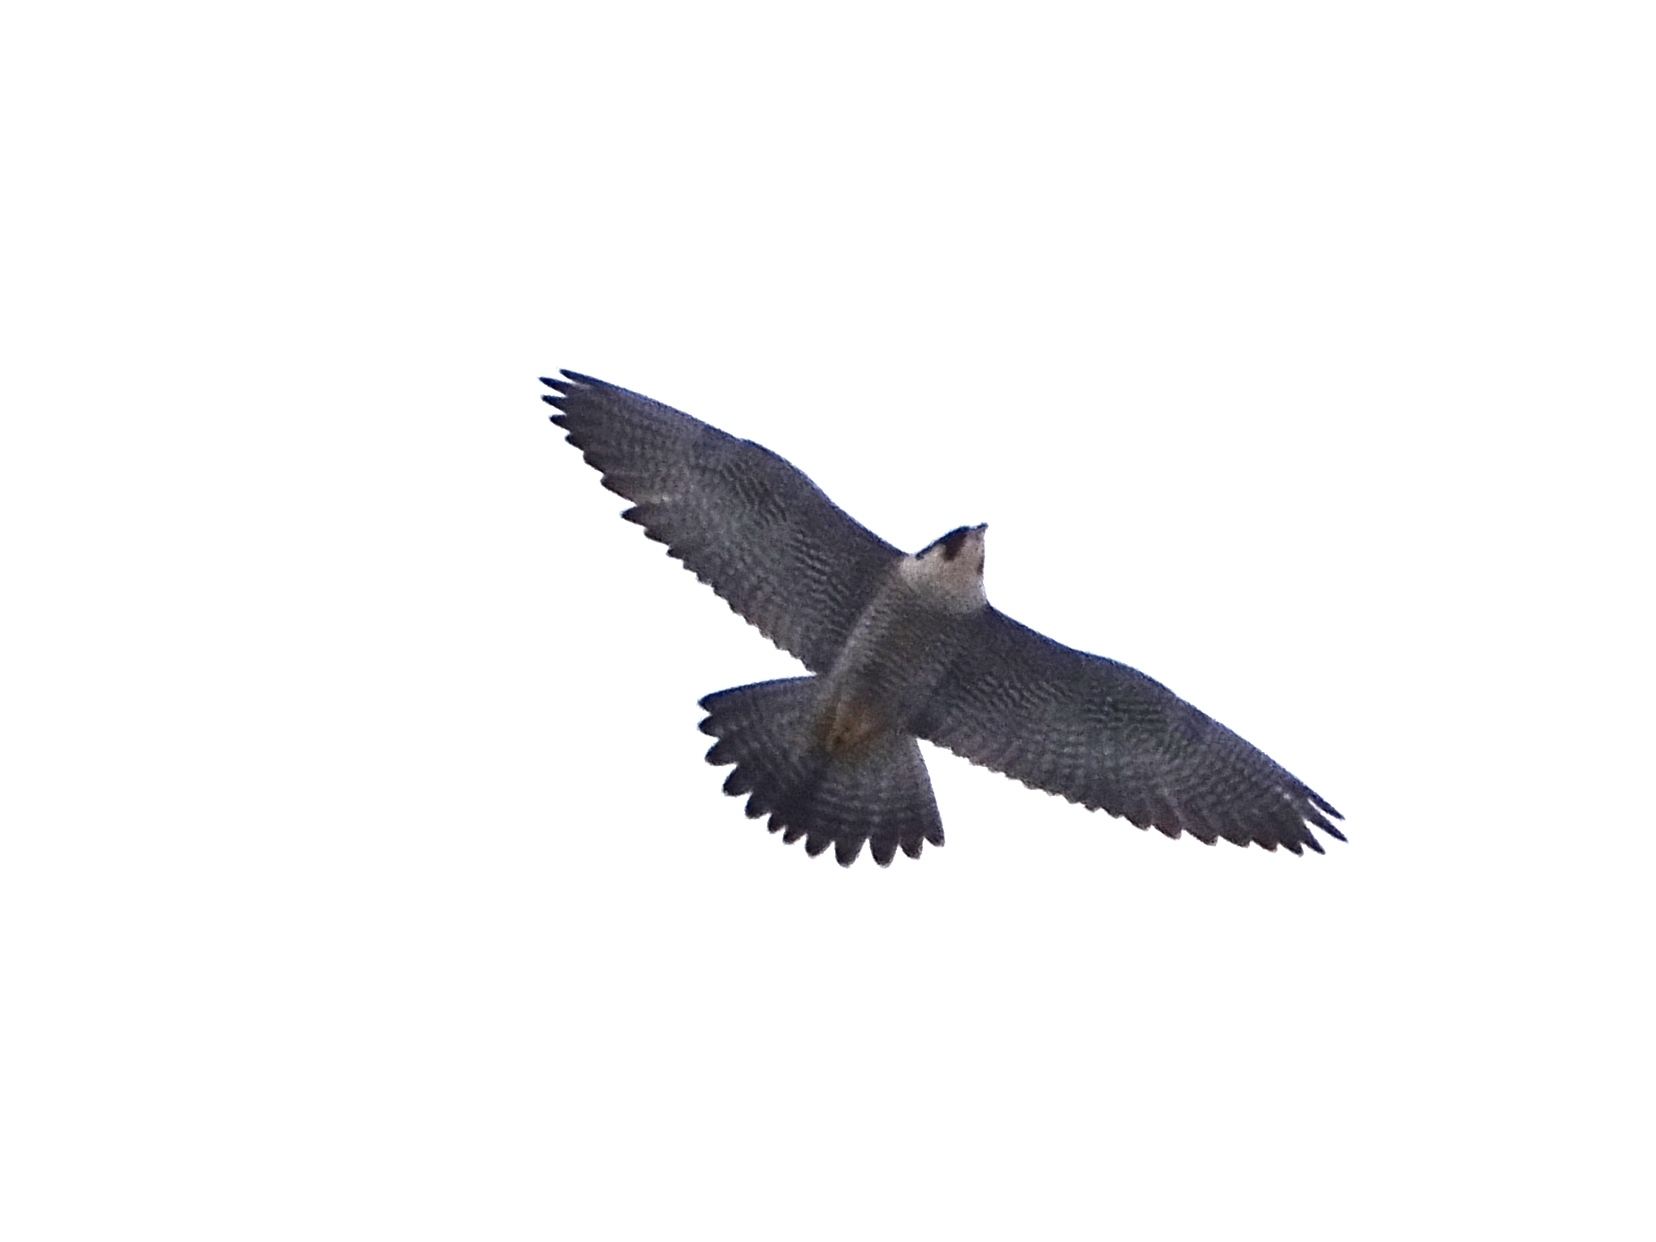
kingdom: Animalia
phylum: Chordata
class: Aves
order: Falconiformes
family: Falconidae
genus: Falco
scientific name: Falco peregrinus
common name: Peregrine falcon
